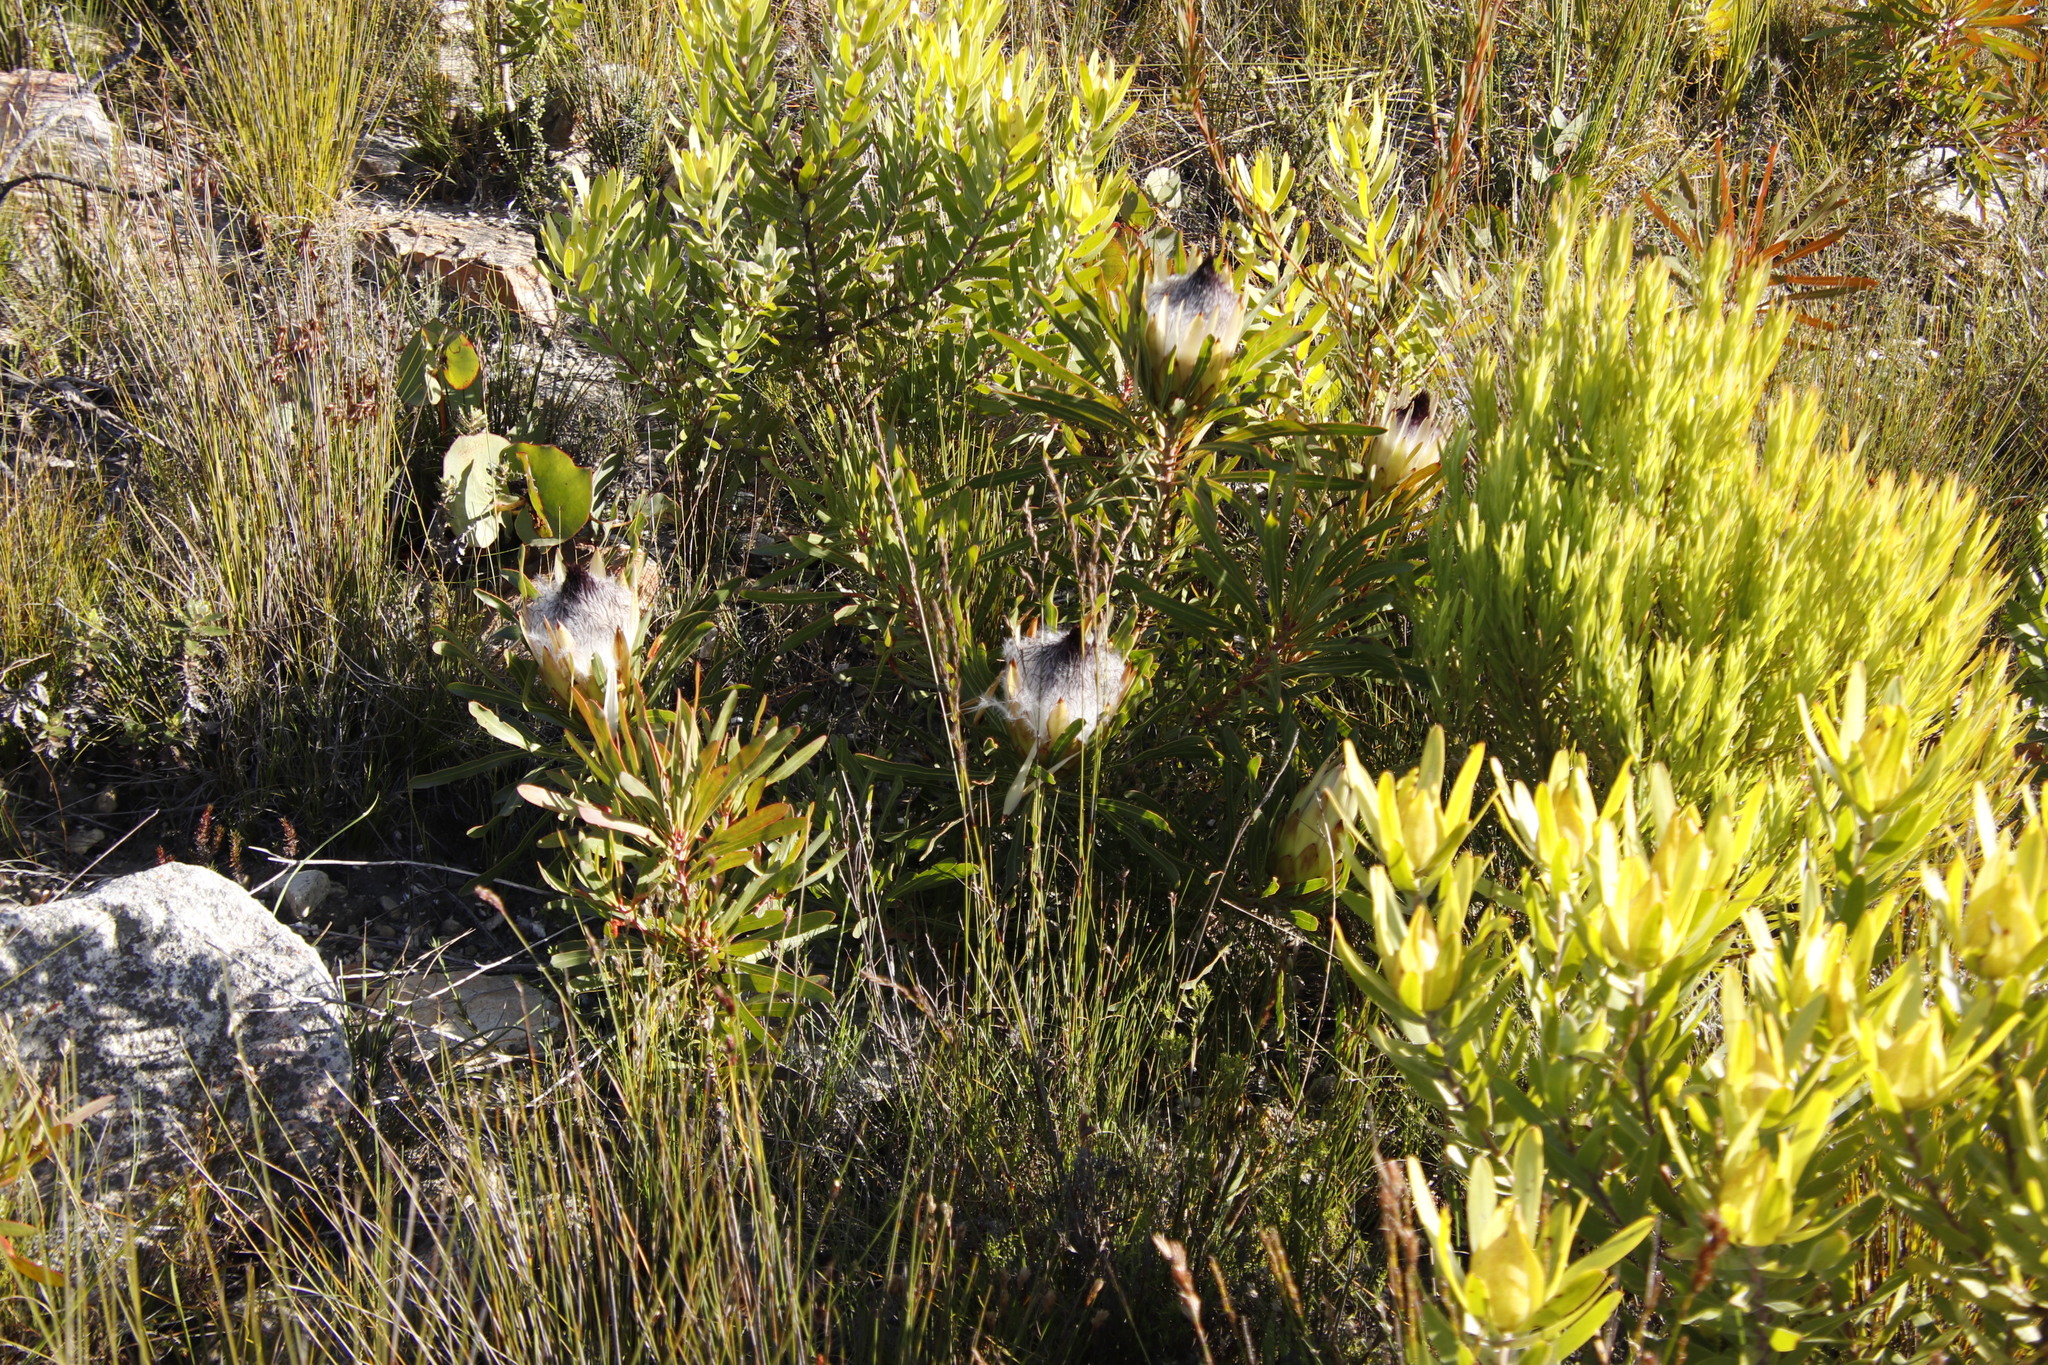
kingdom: Plantae
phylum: Tracheophyta
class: Magnoliopsida
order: Proteales
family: Proteaceae
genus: Protea
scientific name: Protea longifolia
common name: Long-leaf sugarbush
